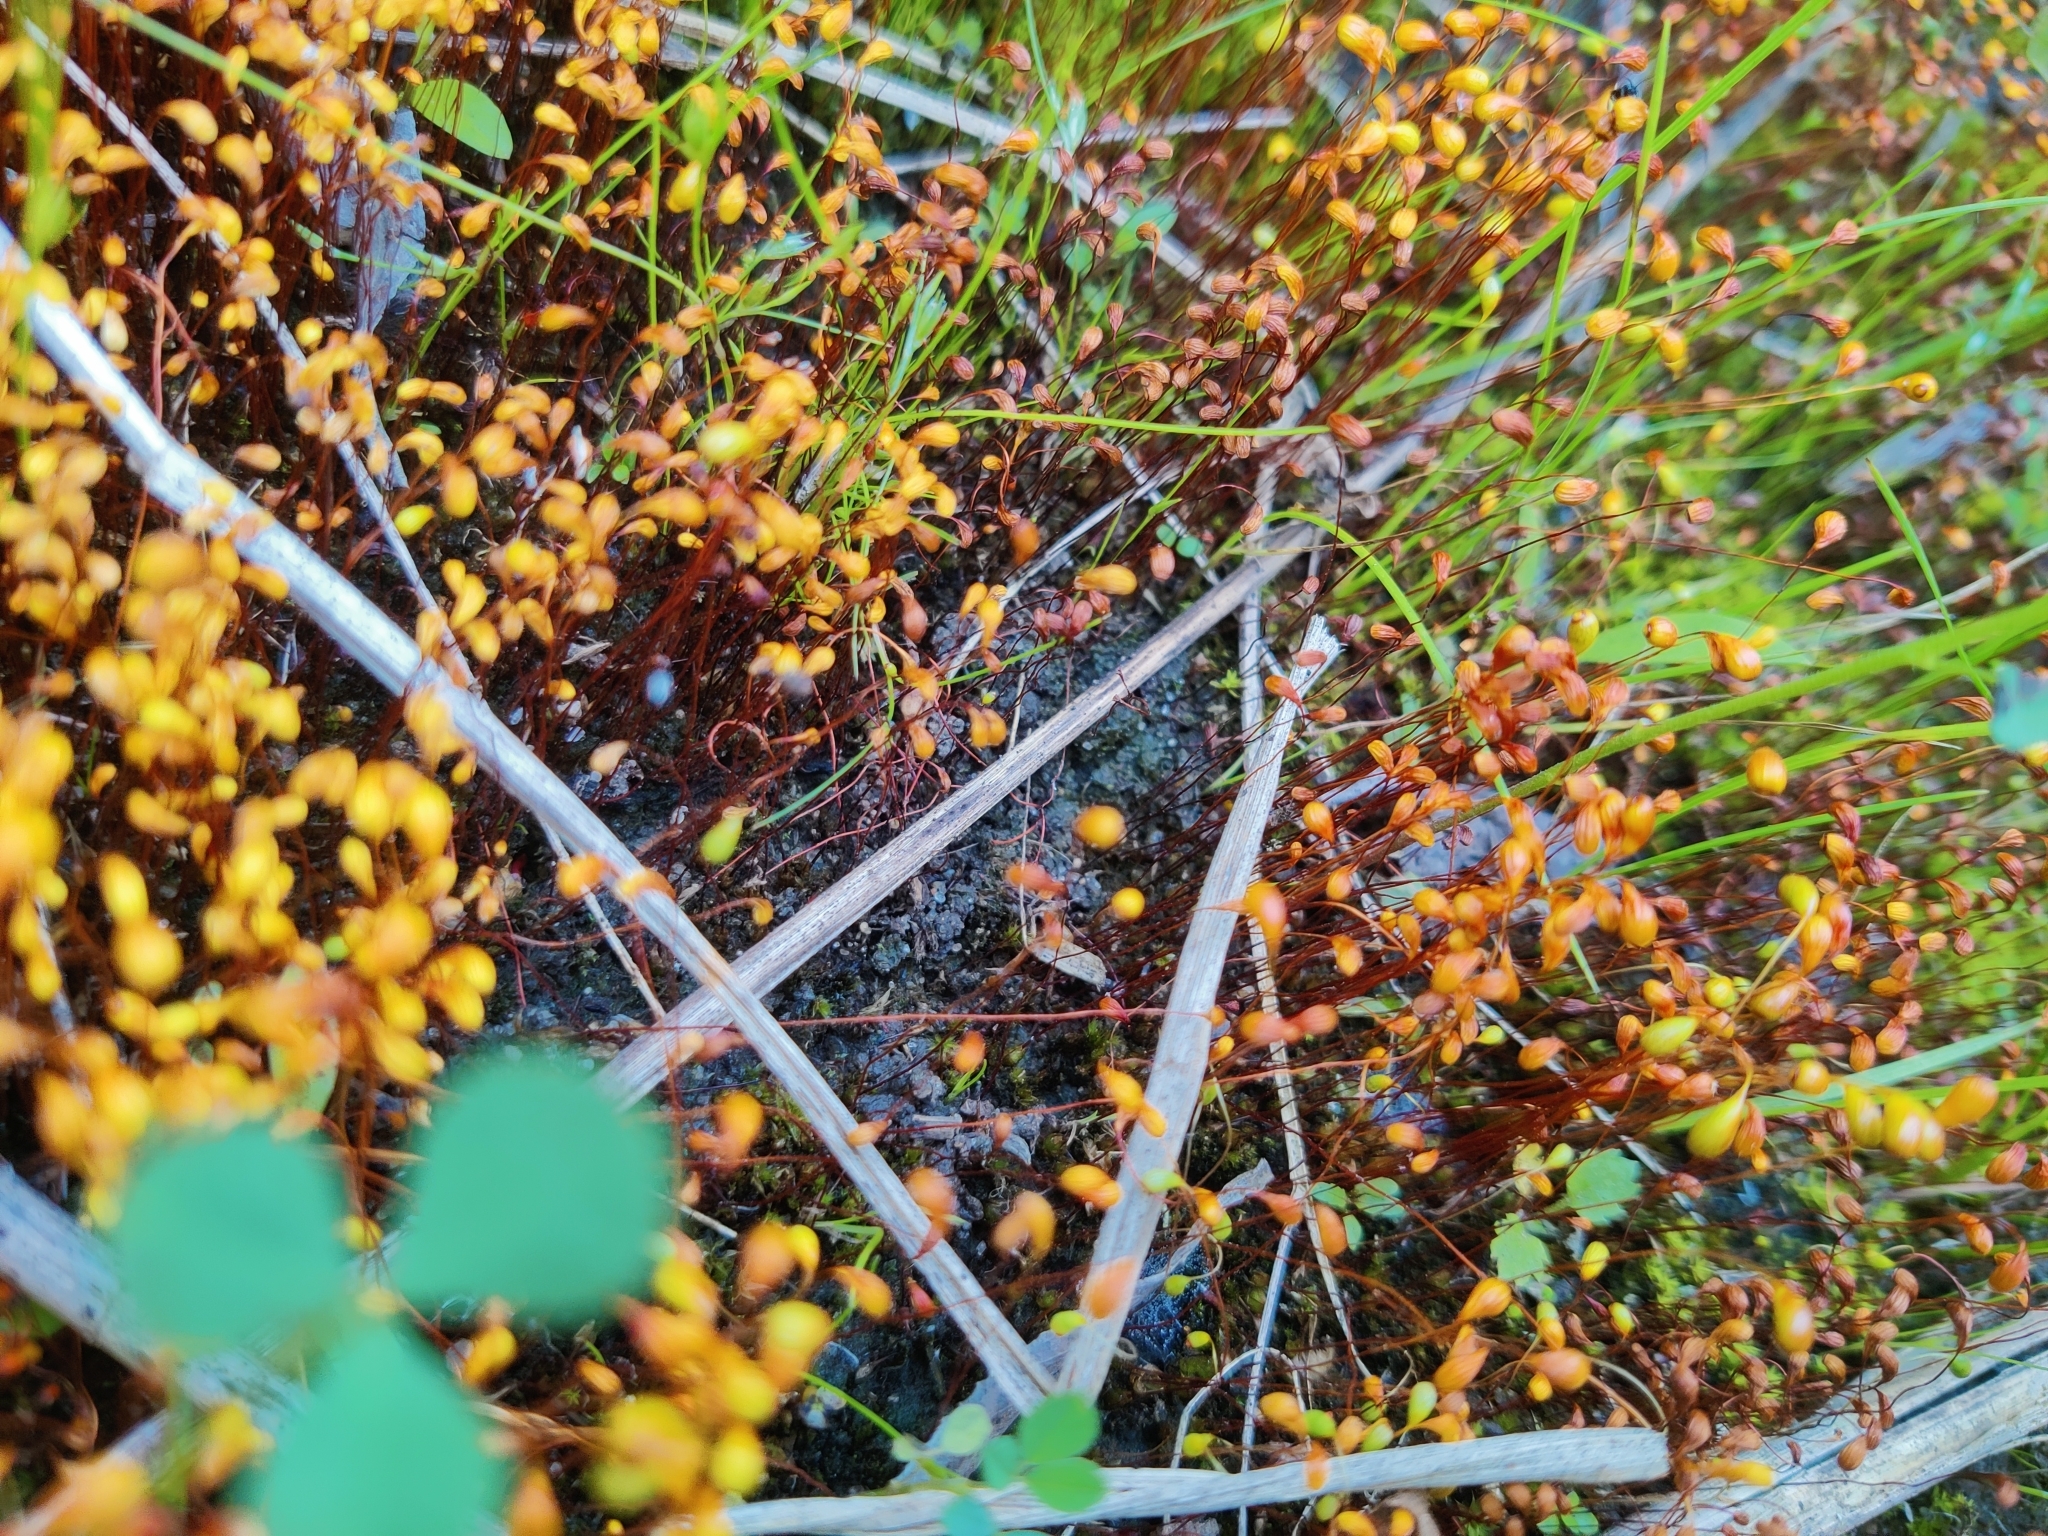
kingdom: Plantae
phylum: Bryophyta
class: Bryopsida
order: Funariales
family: Funariaceae
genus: Funaria
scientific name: Funaria hygrometrica
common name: Common cord moss
